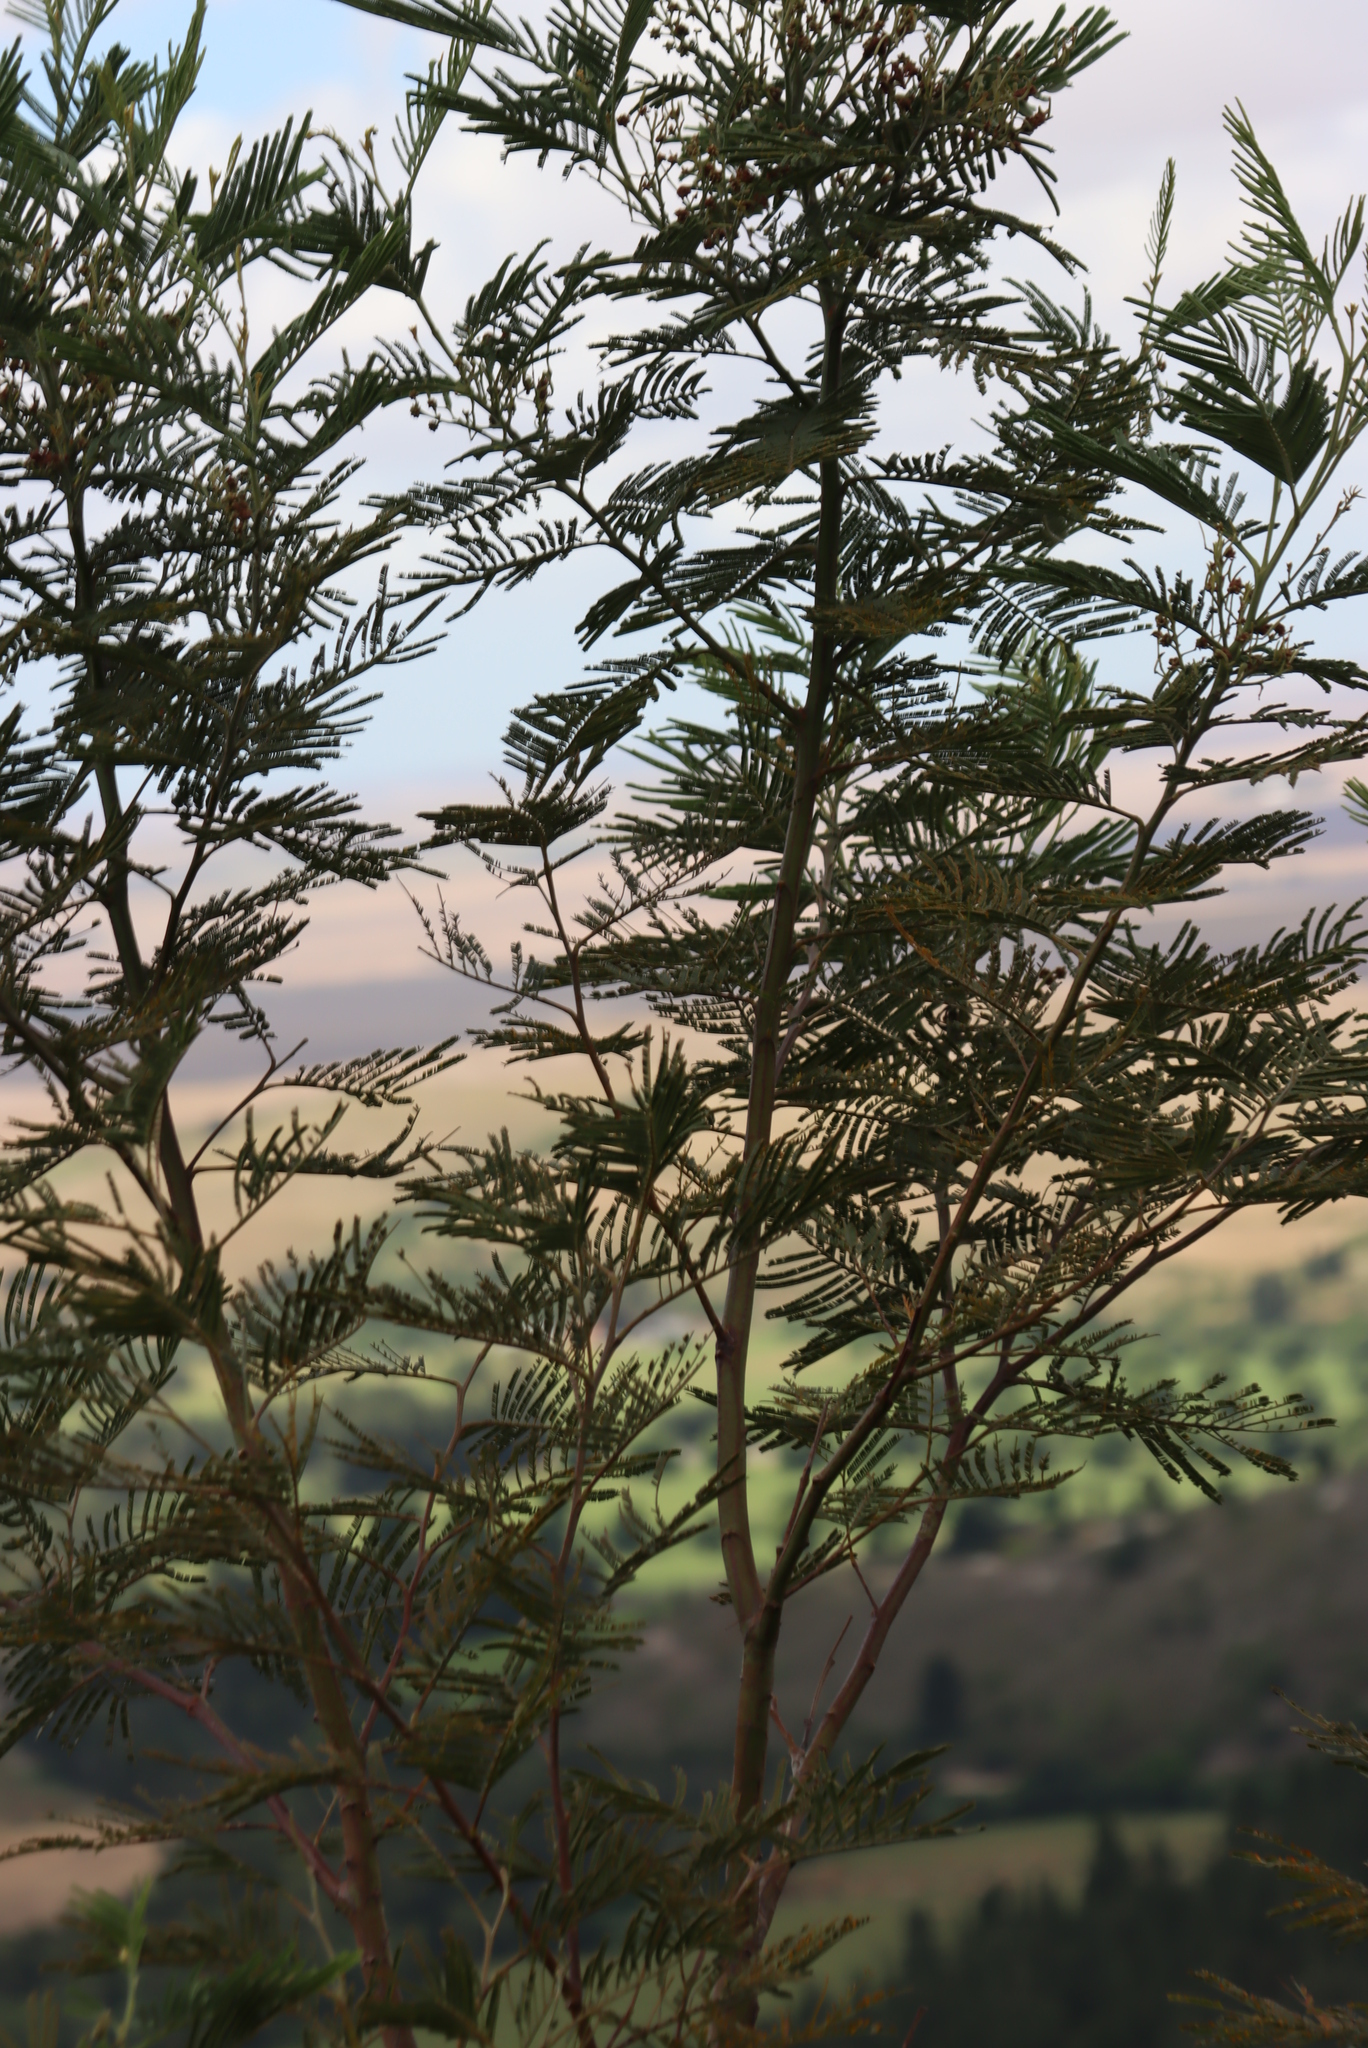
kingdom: Plantae
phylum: Tracheophyta
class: Magnoliopsida
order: Fabales
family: Fabaceae
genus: Acacia
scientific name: Acacia mearnsii
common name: Black wattle
